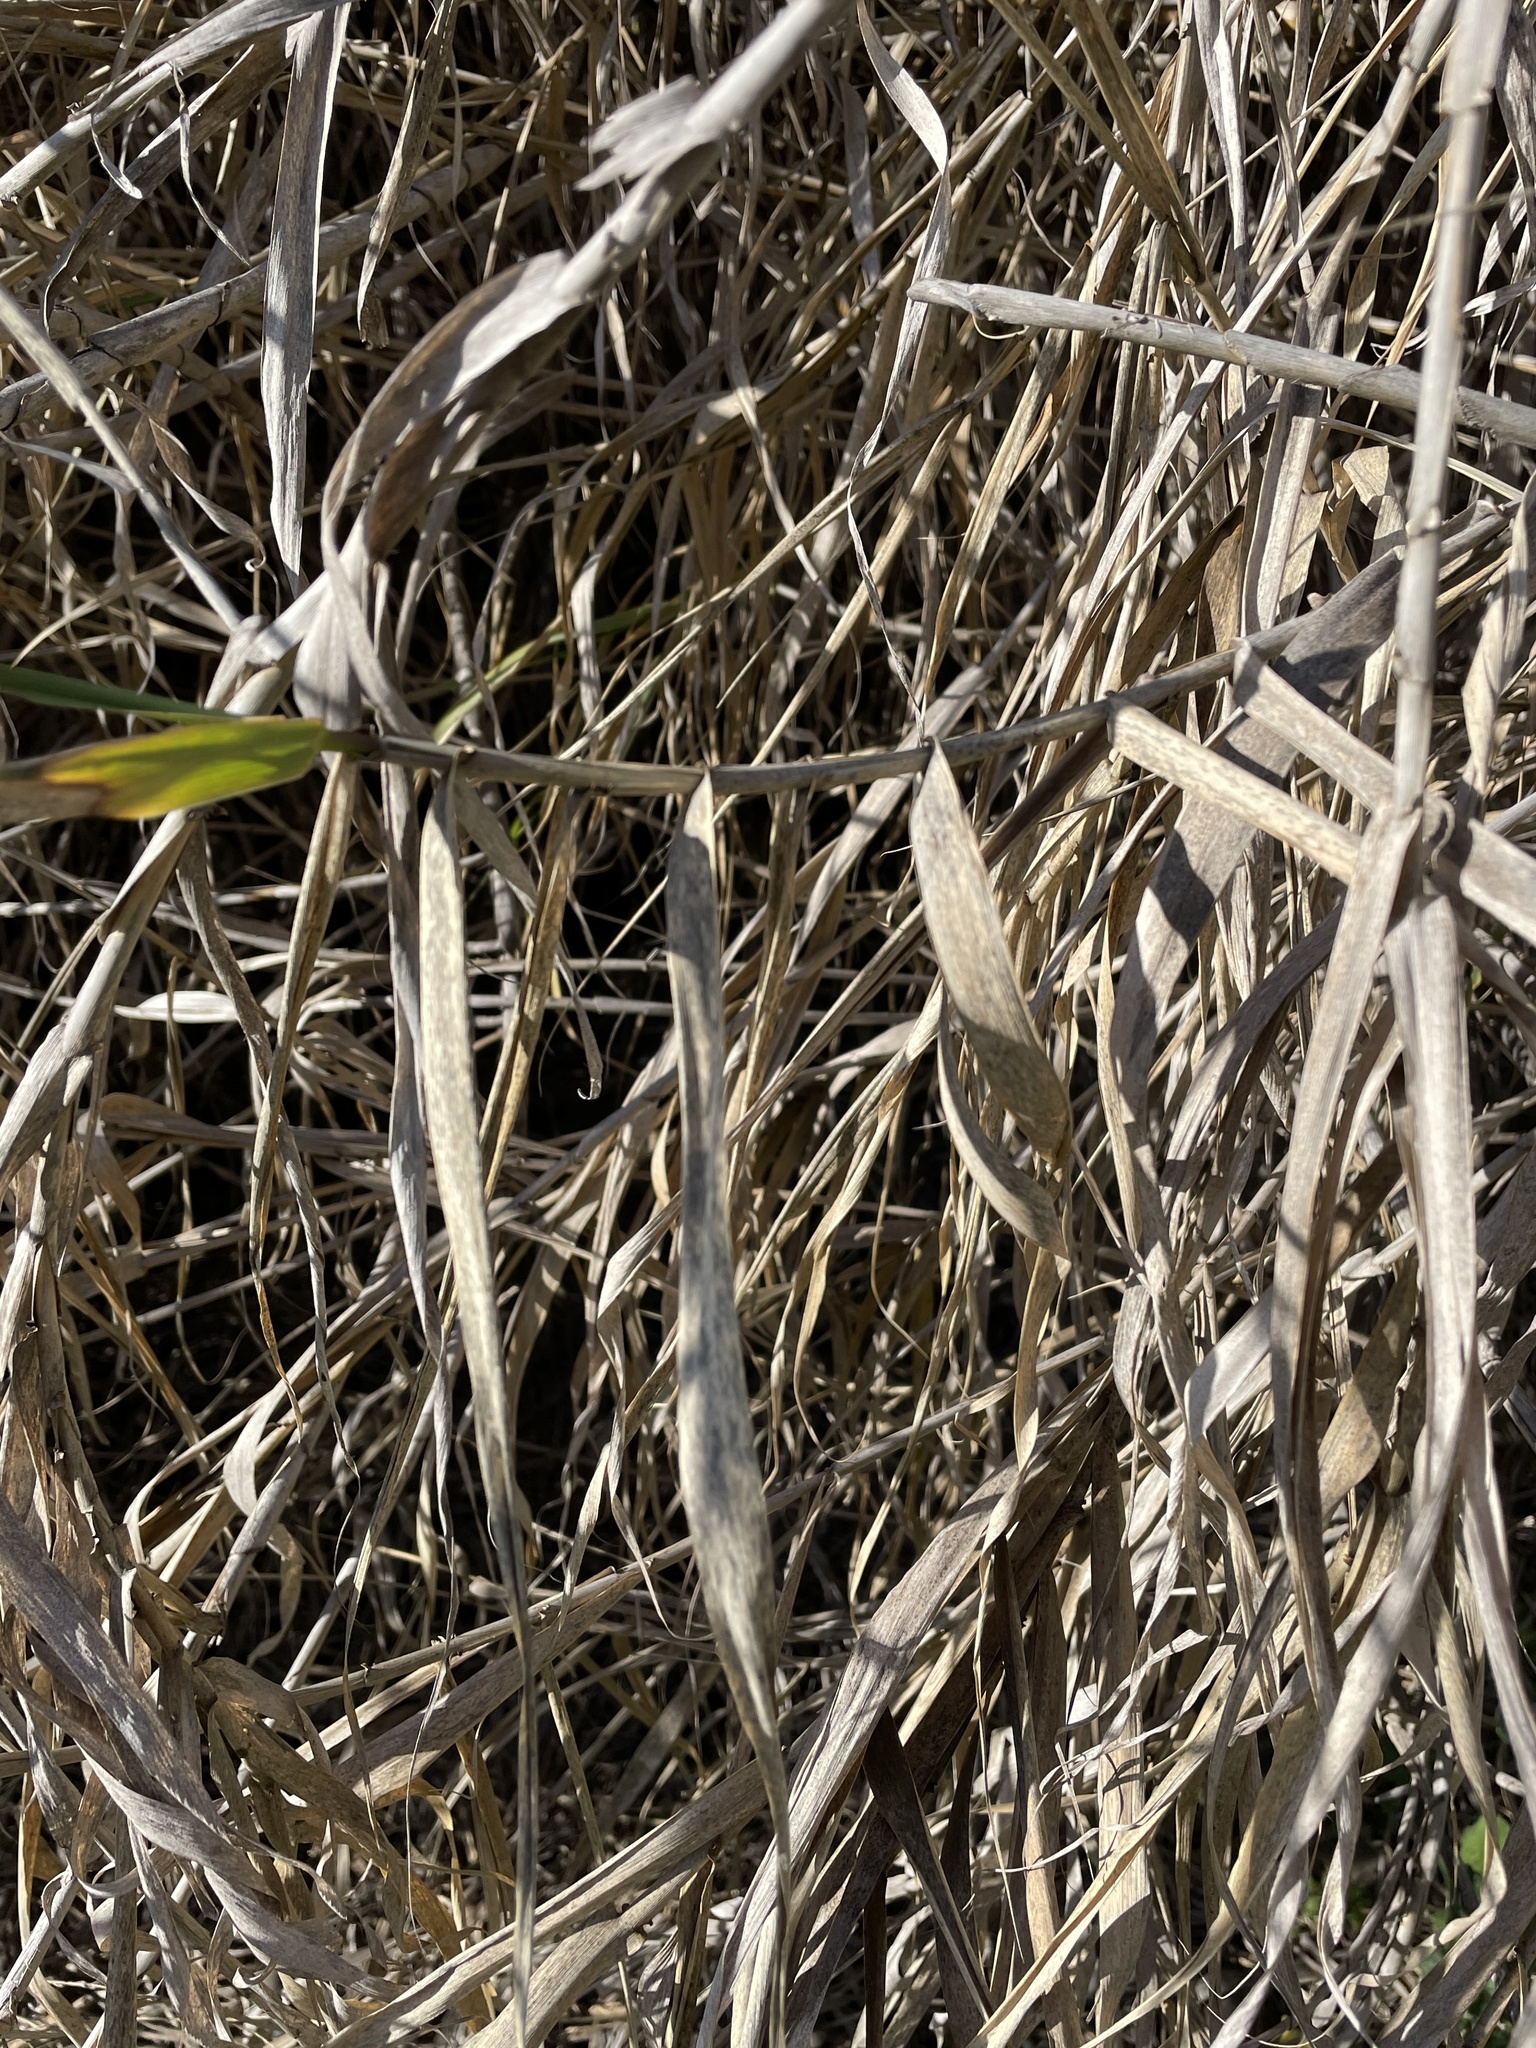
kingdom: Plantae
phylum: Tracheophyta
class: Liliopsida
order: Poales
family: Poaceae
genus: Arundo
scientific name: Arundo donax
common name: Giant reed
